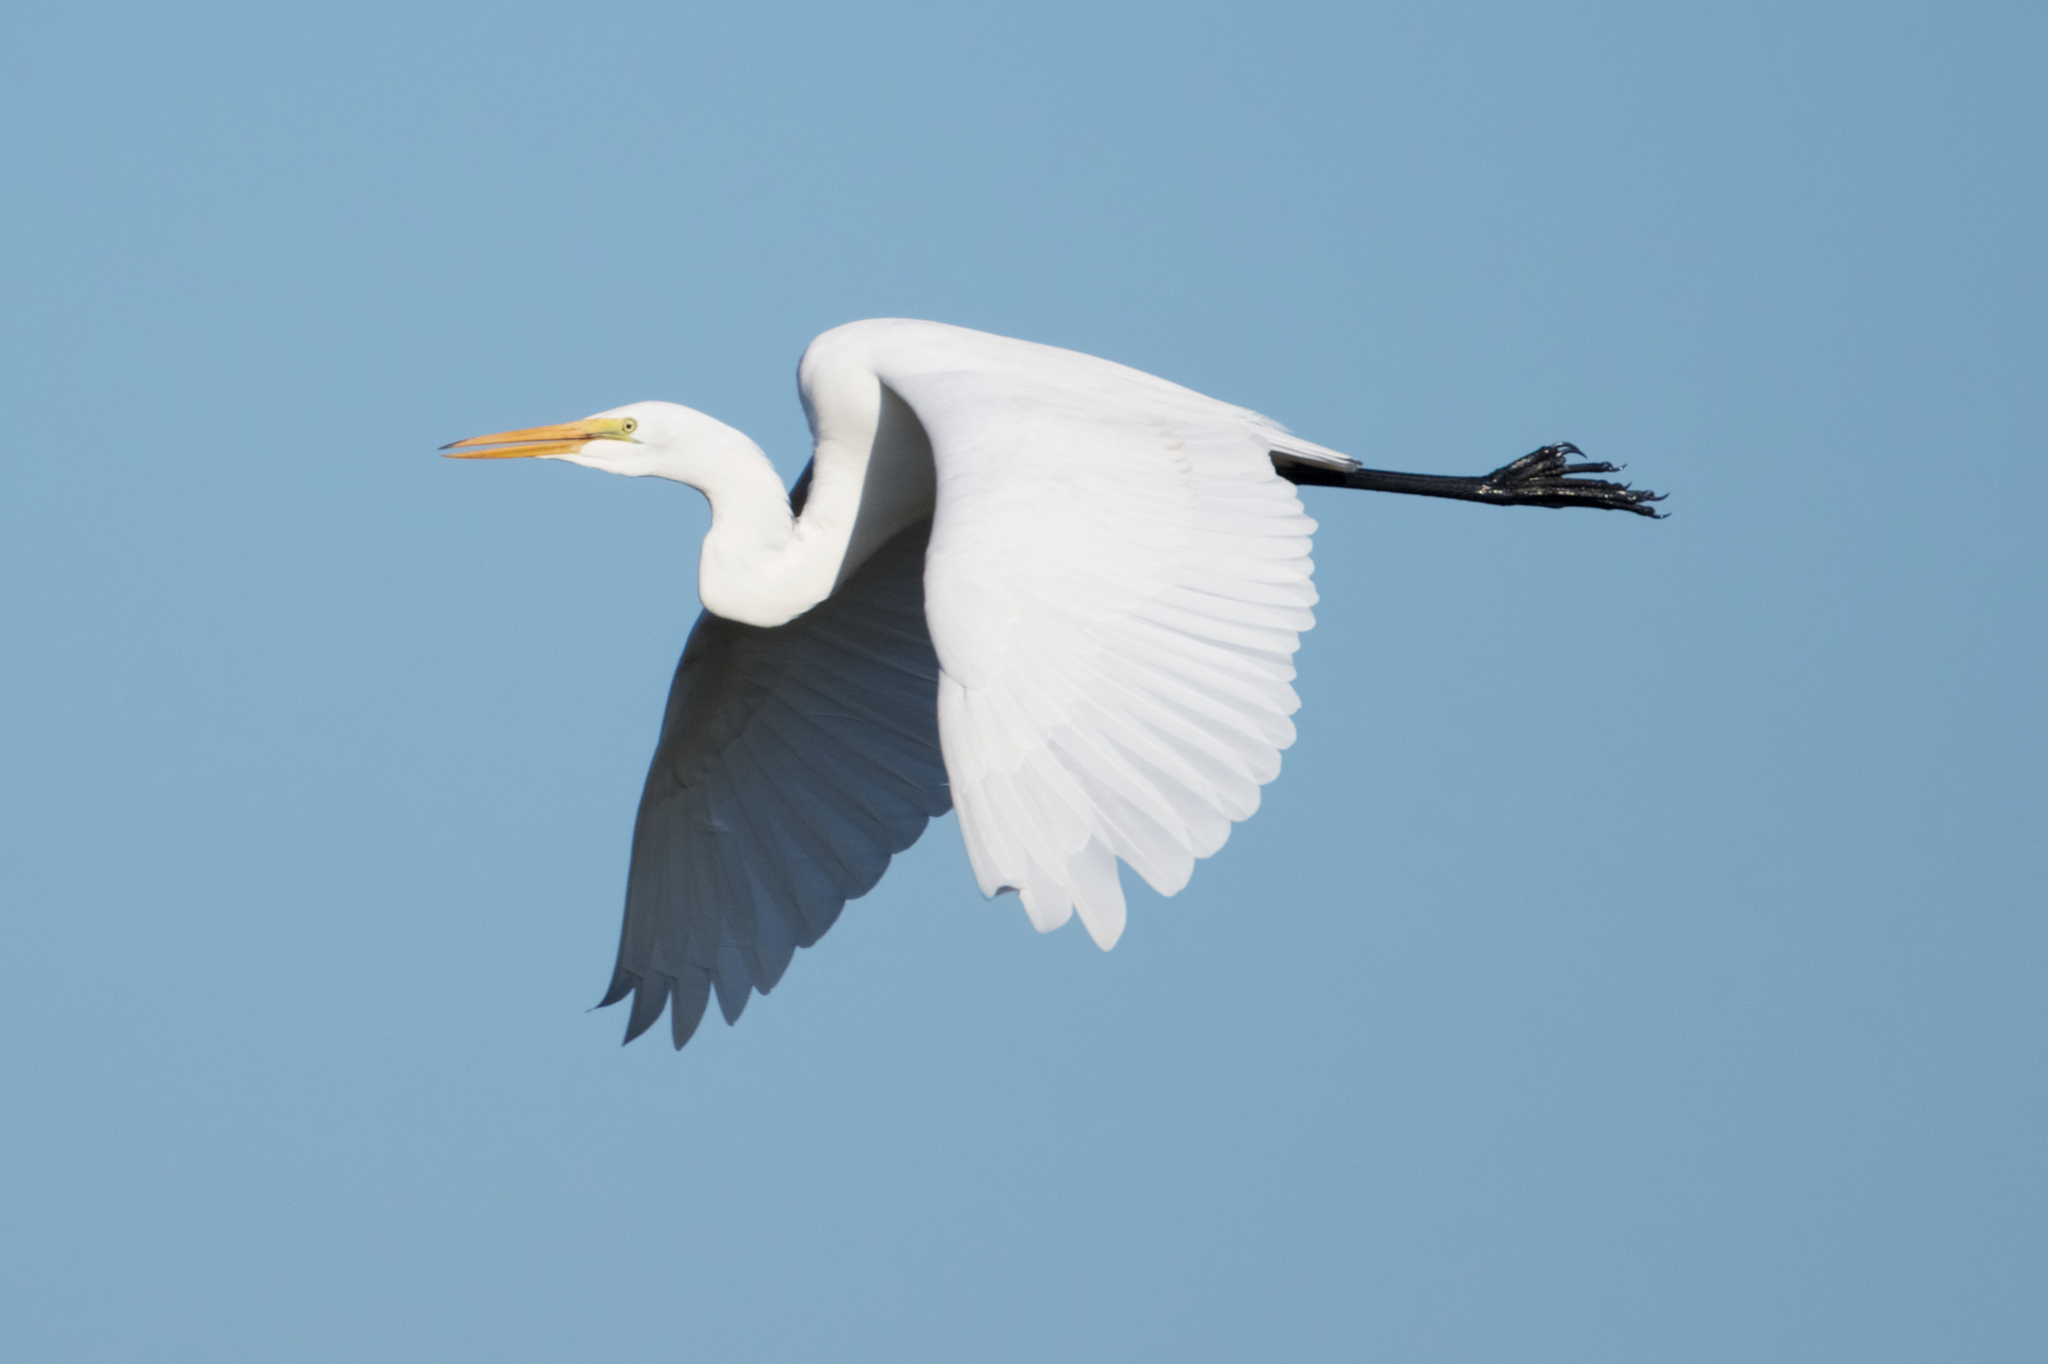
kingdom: Animalia
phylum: Chordata
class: Aves
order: Pelecaniformes
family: Ardeidae
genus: Ardea
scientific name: Ardea alba
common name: Great egret
